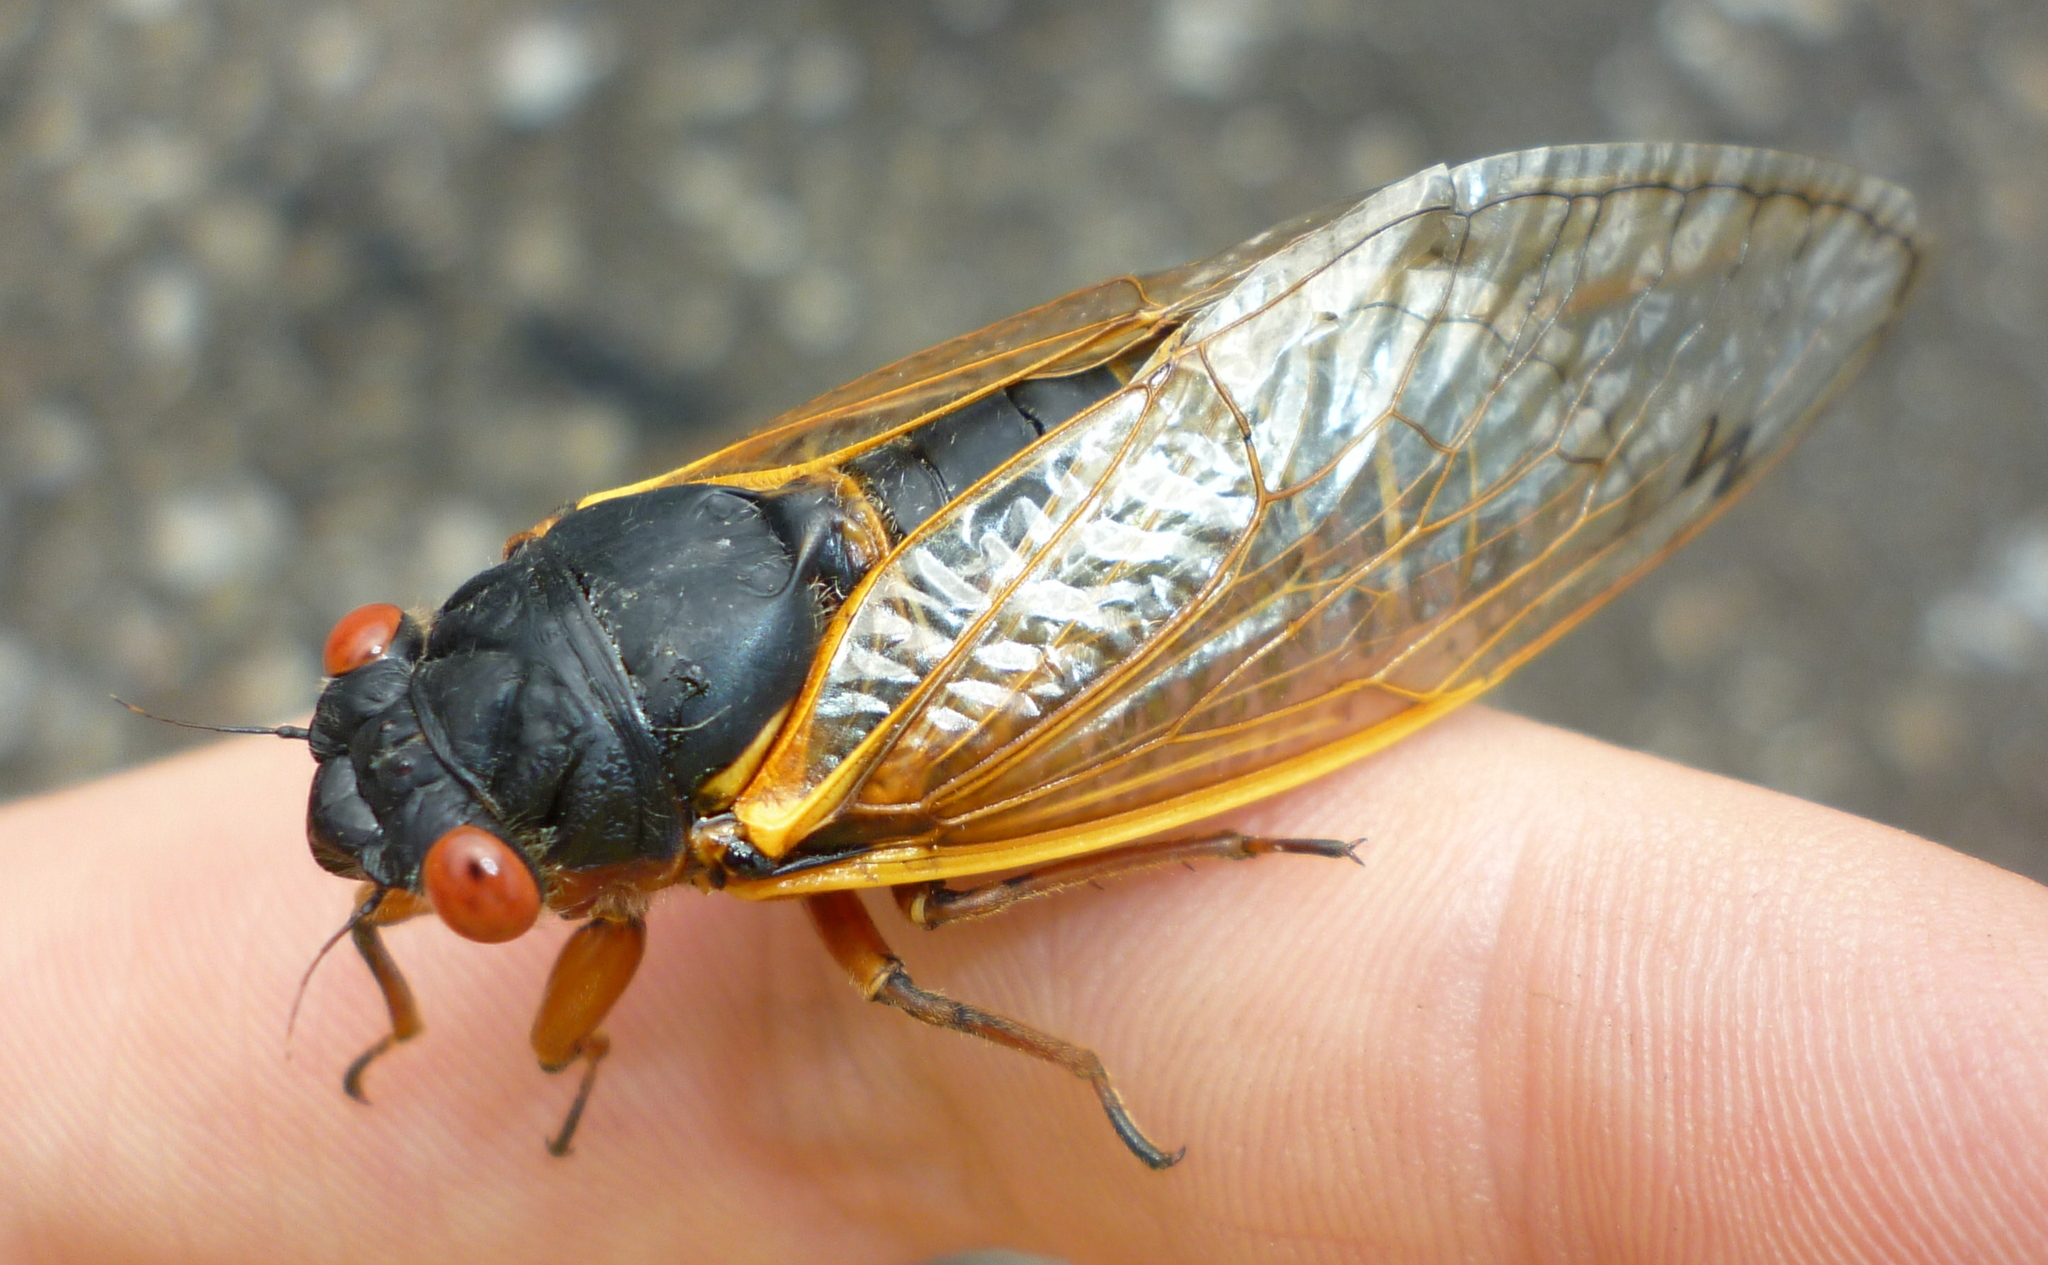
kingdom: Animalia
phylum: Arthropoda
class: Insecta
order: Hemiptera
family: Cicadidae
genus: Magicicada
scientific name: Magicicada septendecim
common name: Periodical cicada
